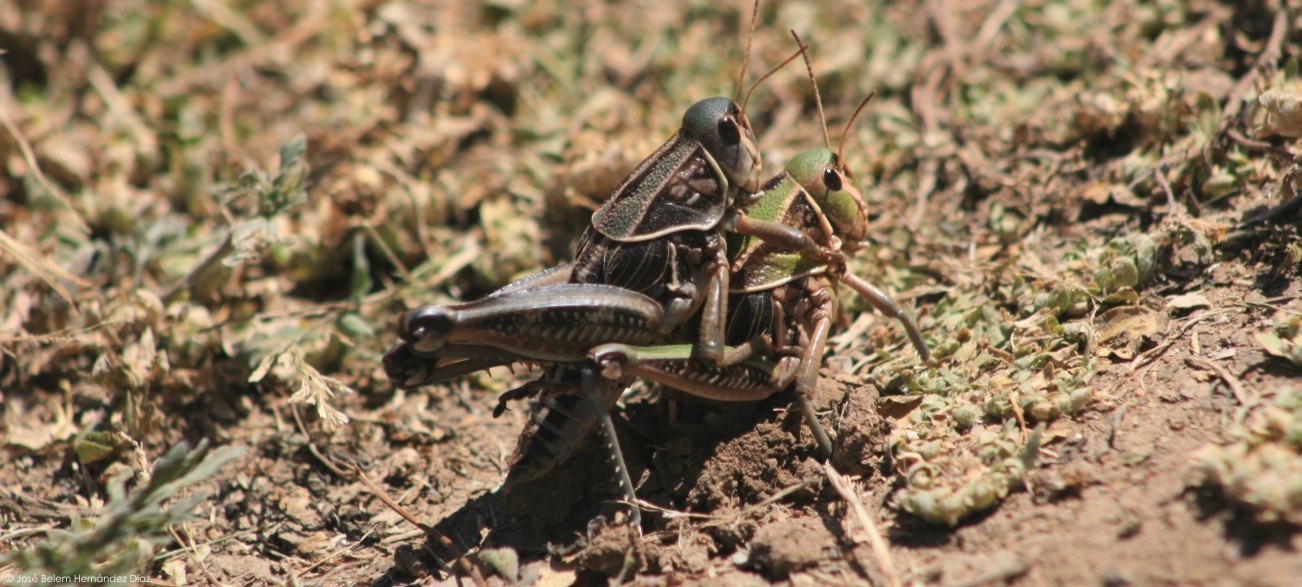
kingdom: Animalia
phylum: Arthropoda
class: Insecta
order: Orthoptera
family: Romaleidae
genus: Brachystola
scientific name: Brachystola mexicana
